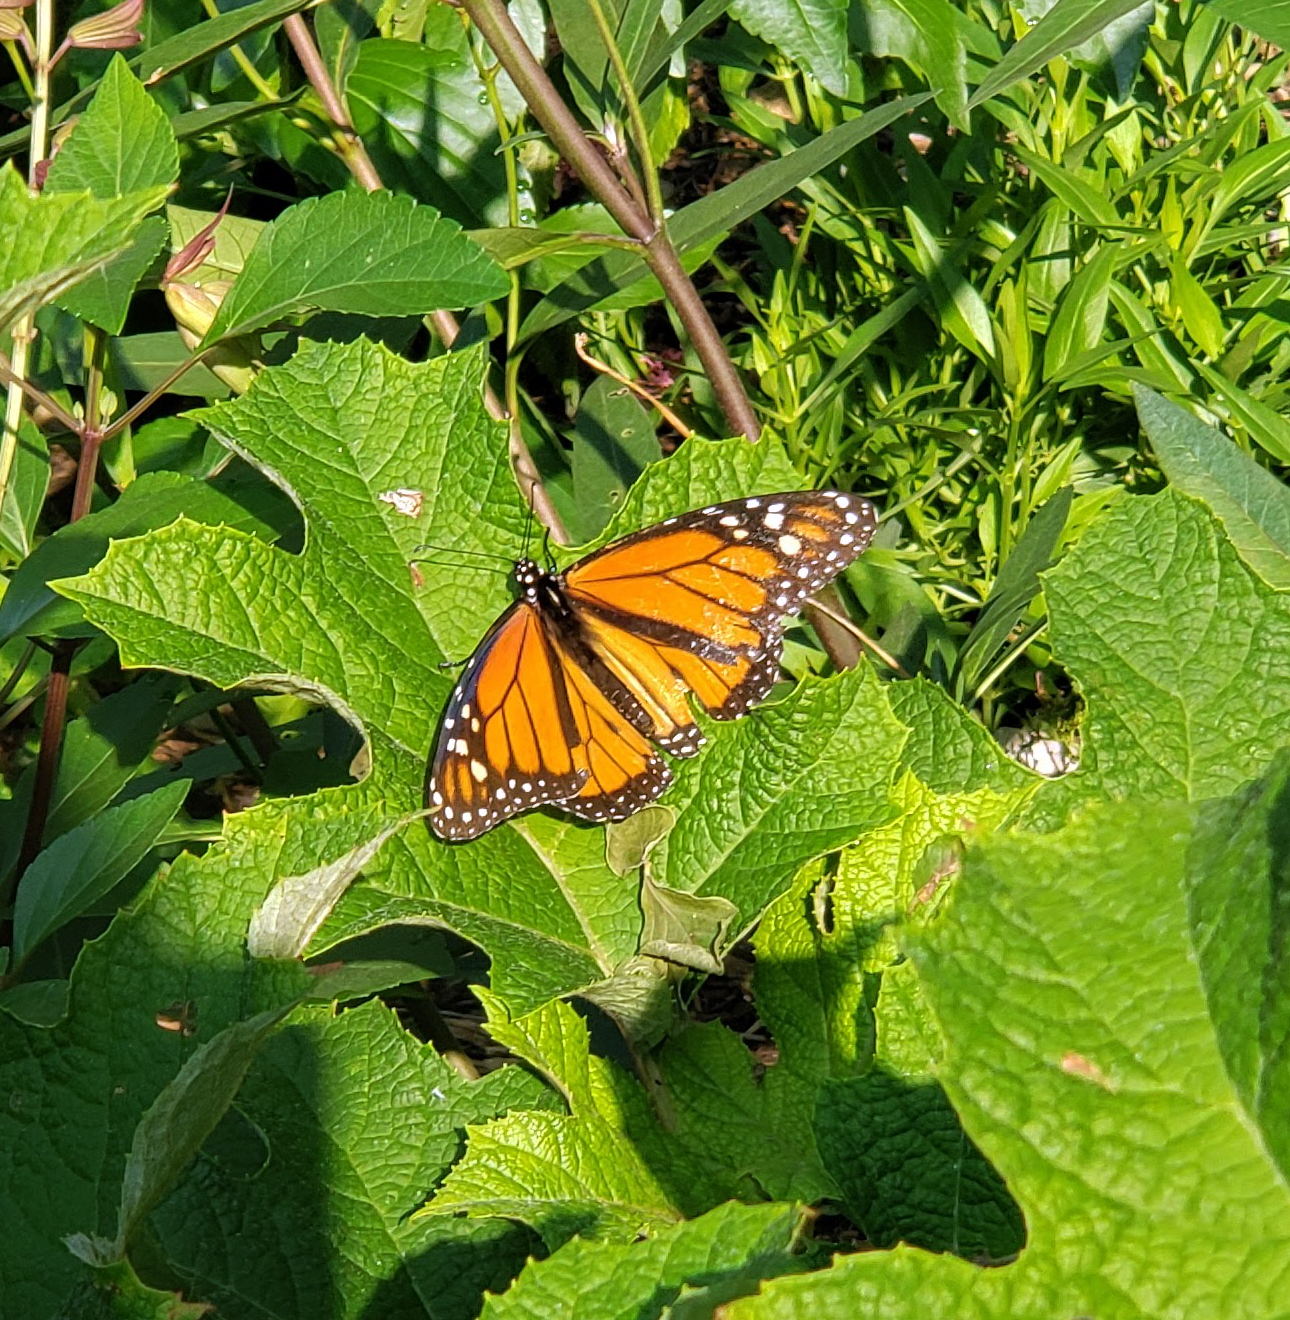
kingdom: Animalia
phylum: Arthropoda
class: Insecta
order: Lepidoptera
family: Nymphalidae
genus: Danaus
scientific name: Danaus plexippus
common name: Monarch
